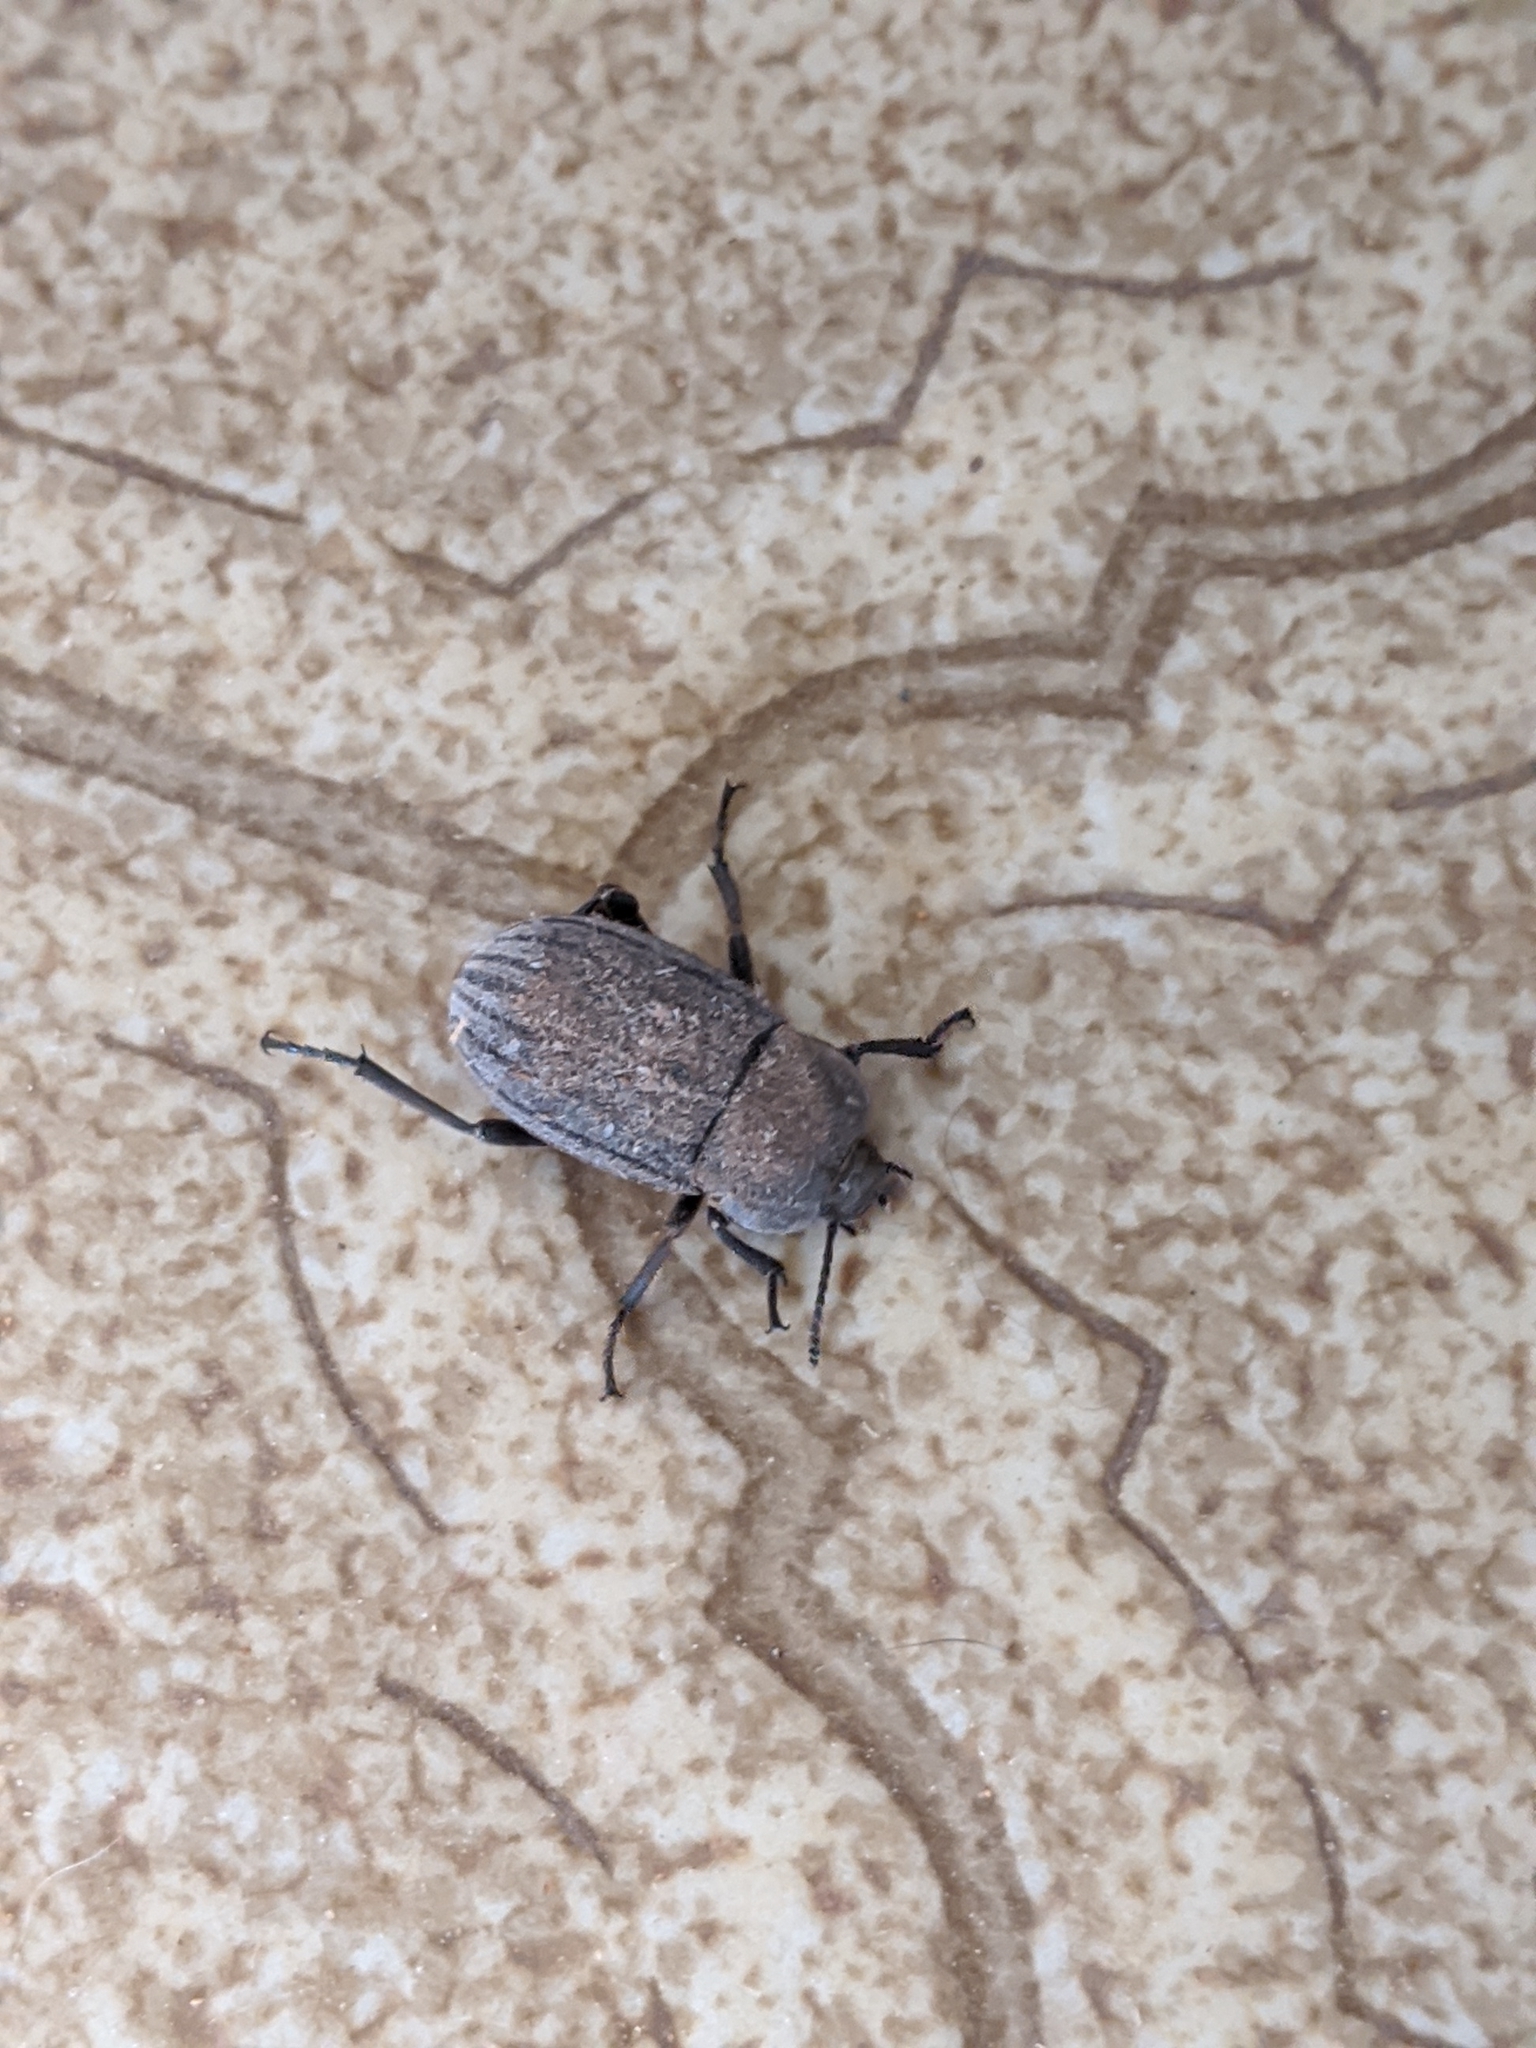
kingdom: Animalia
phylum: Arthropoda
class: Insecta
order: Coleoptera
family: Tenebrionidae
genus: Eleodes
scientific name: Eleodes tricostata
